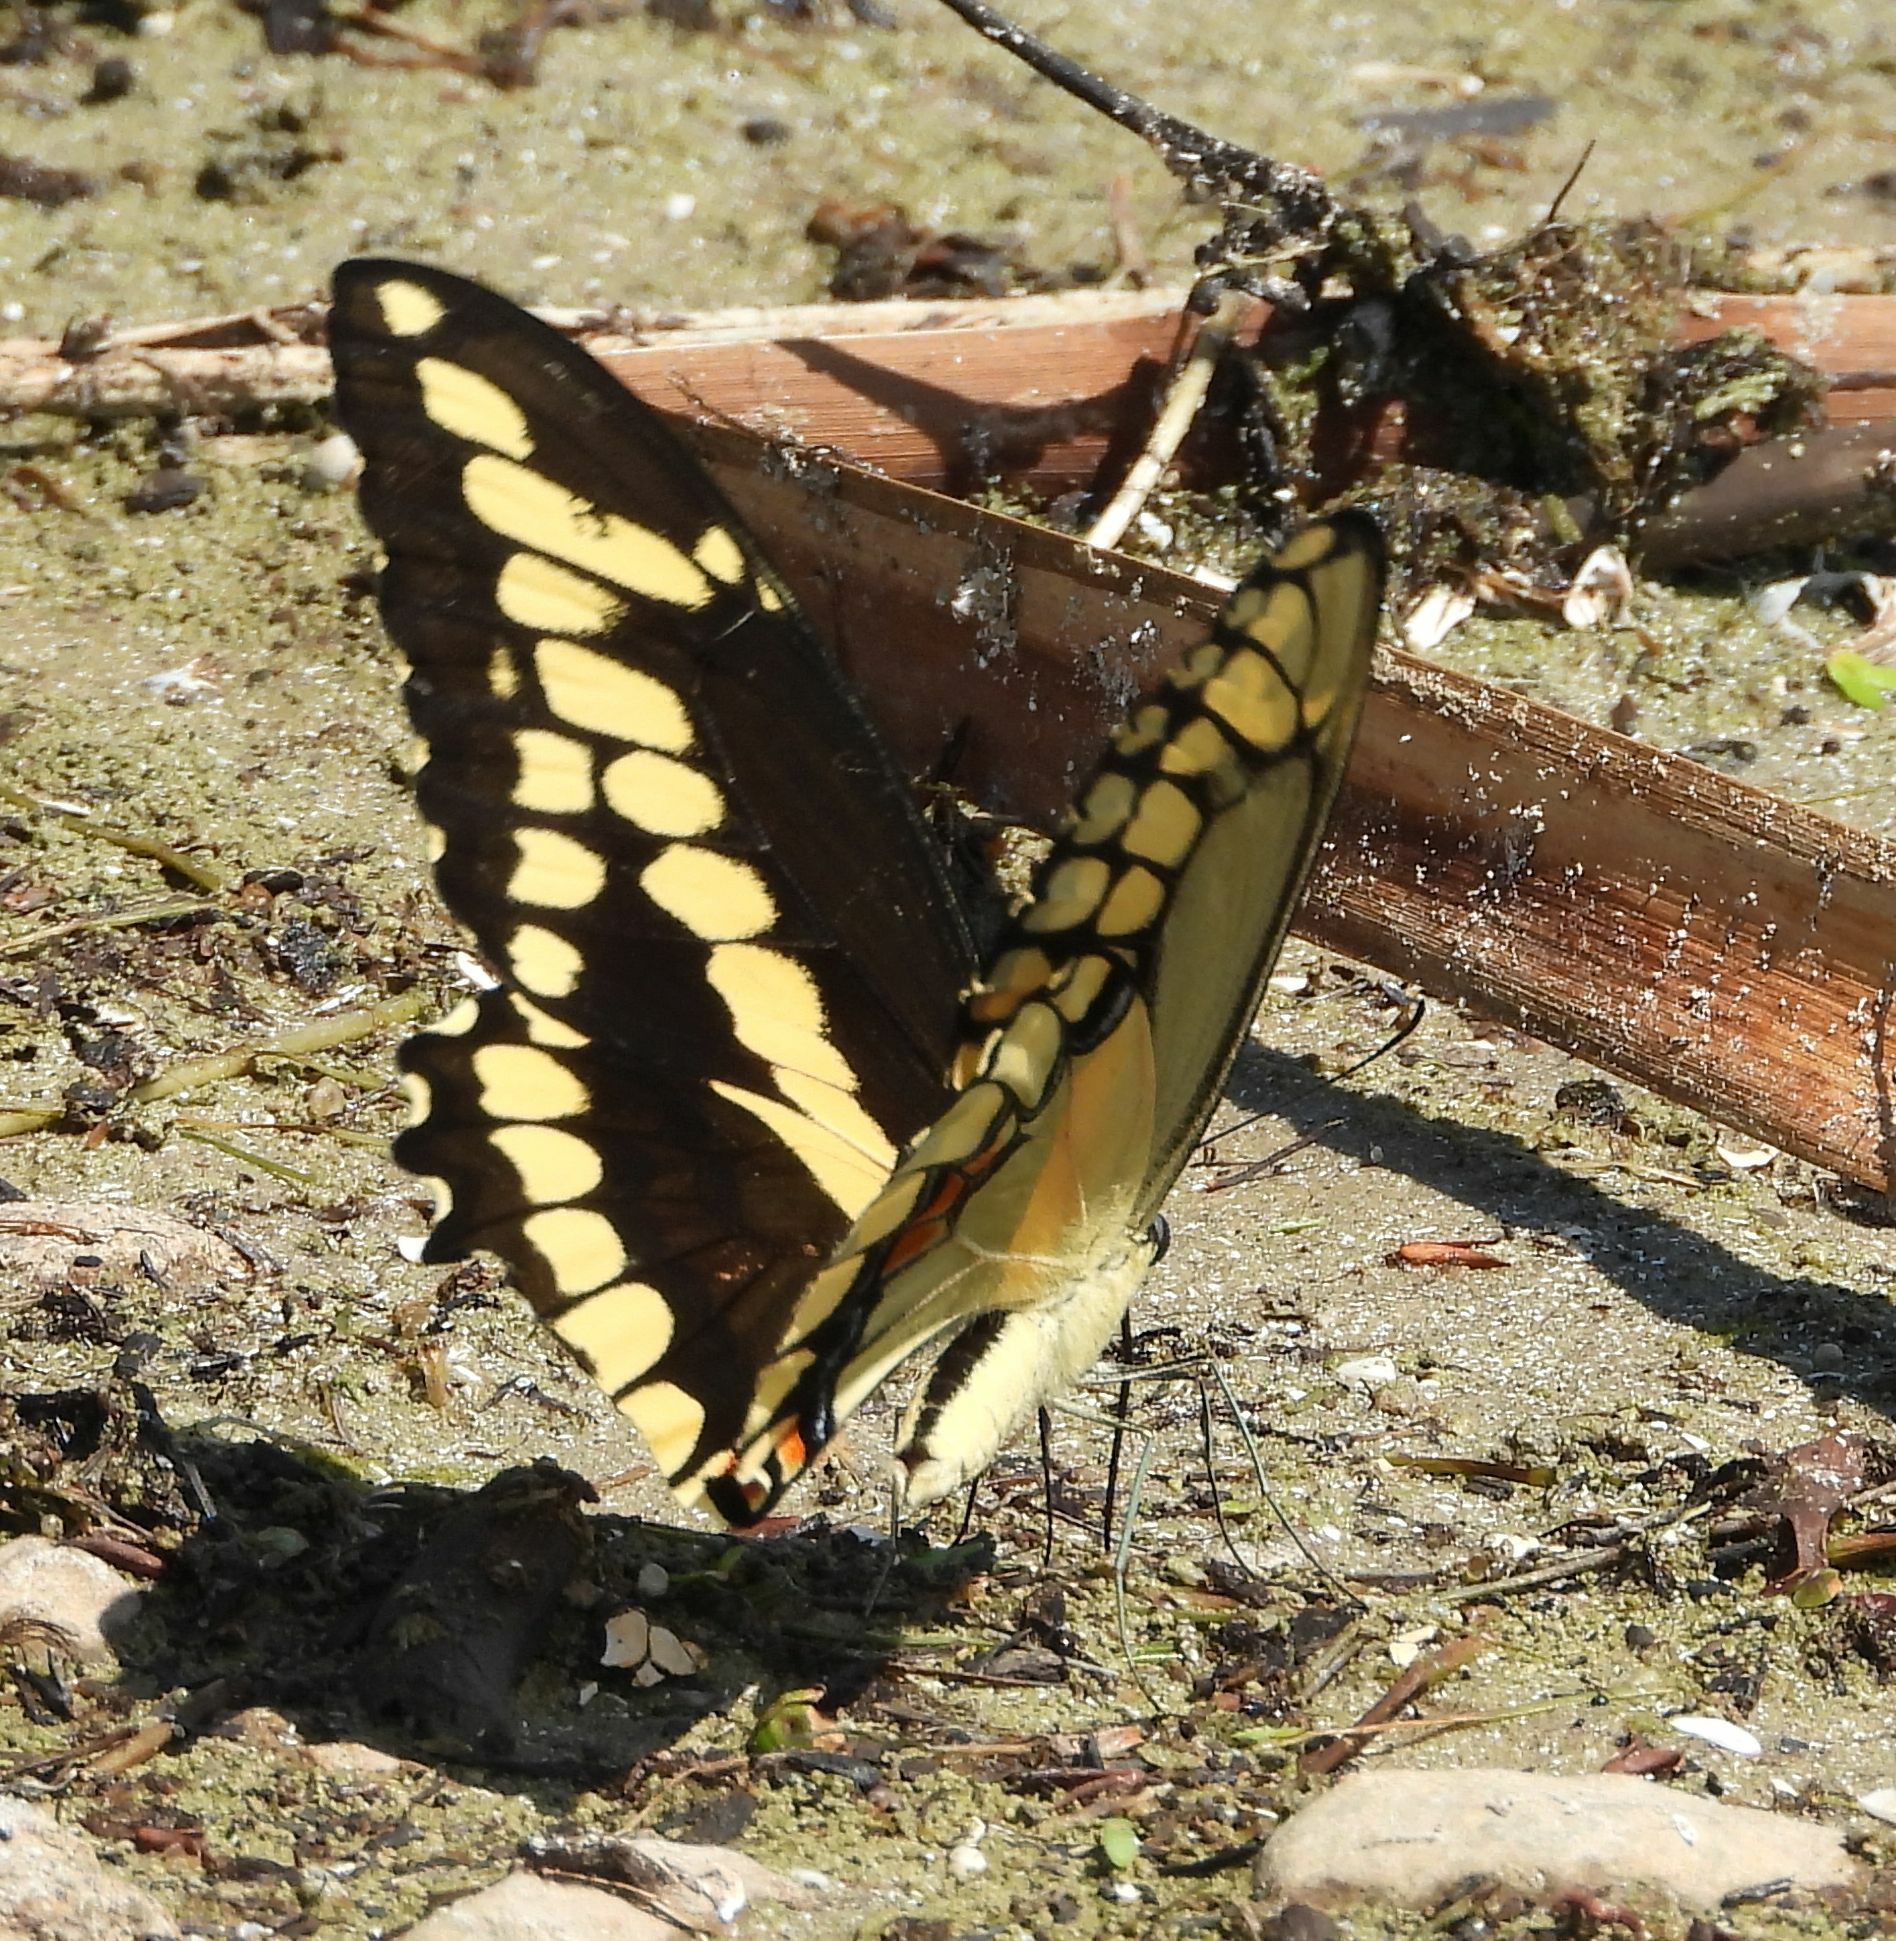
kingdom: Animalia
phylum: Arthropoda
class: Insecta
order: Lepidoptera
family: Papilionidae
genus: Papilio
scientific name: Papilio cresphontes
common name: Giant swallowtail
